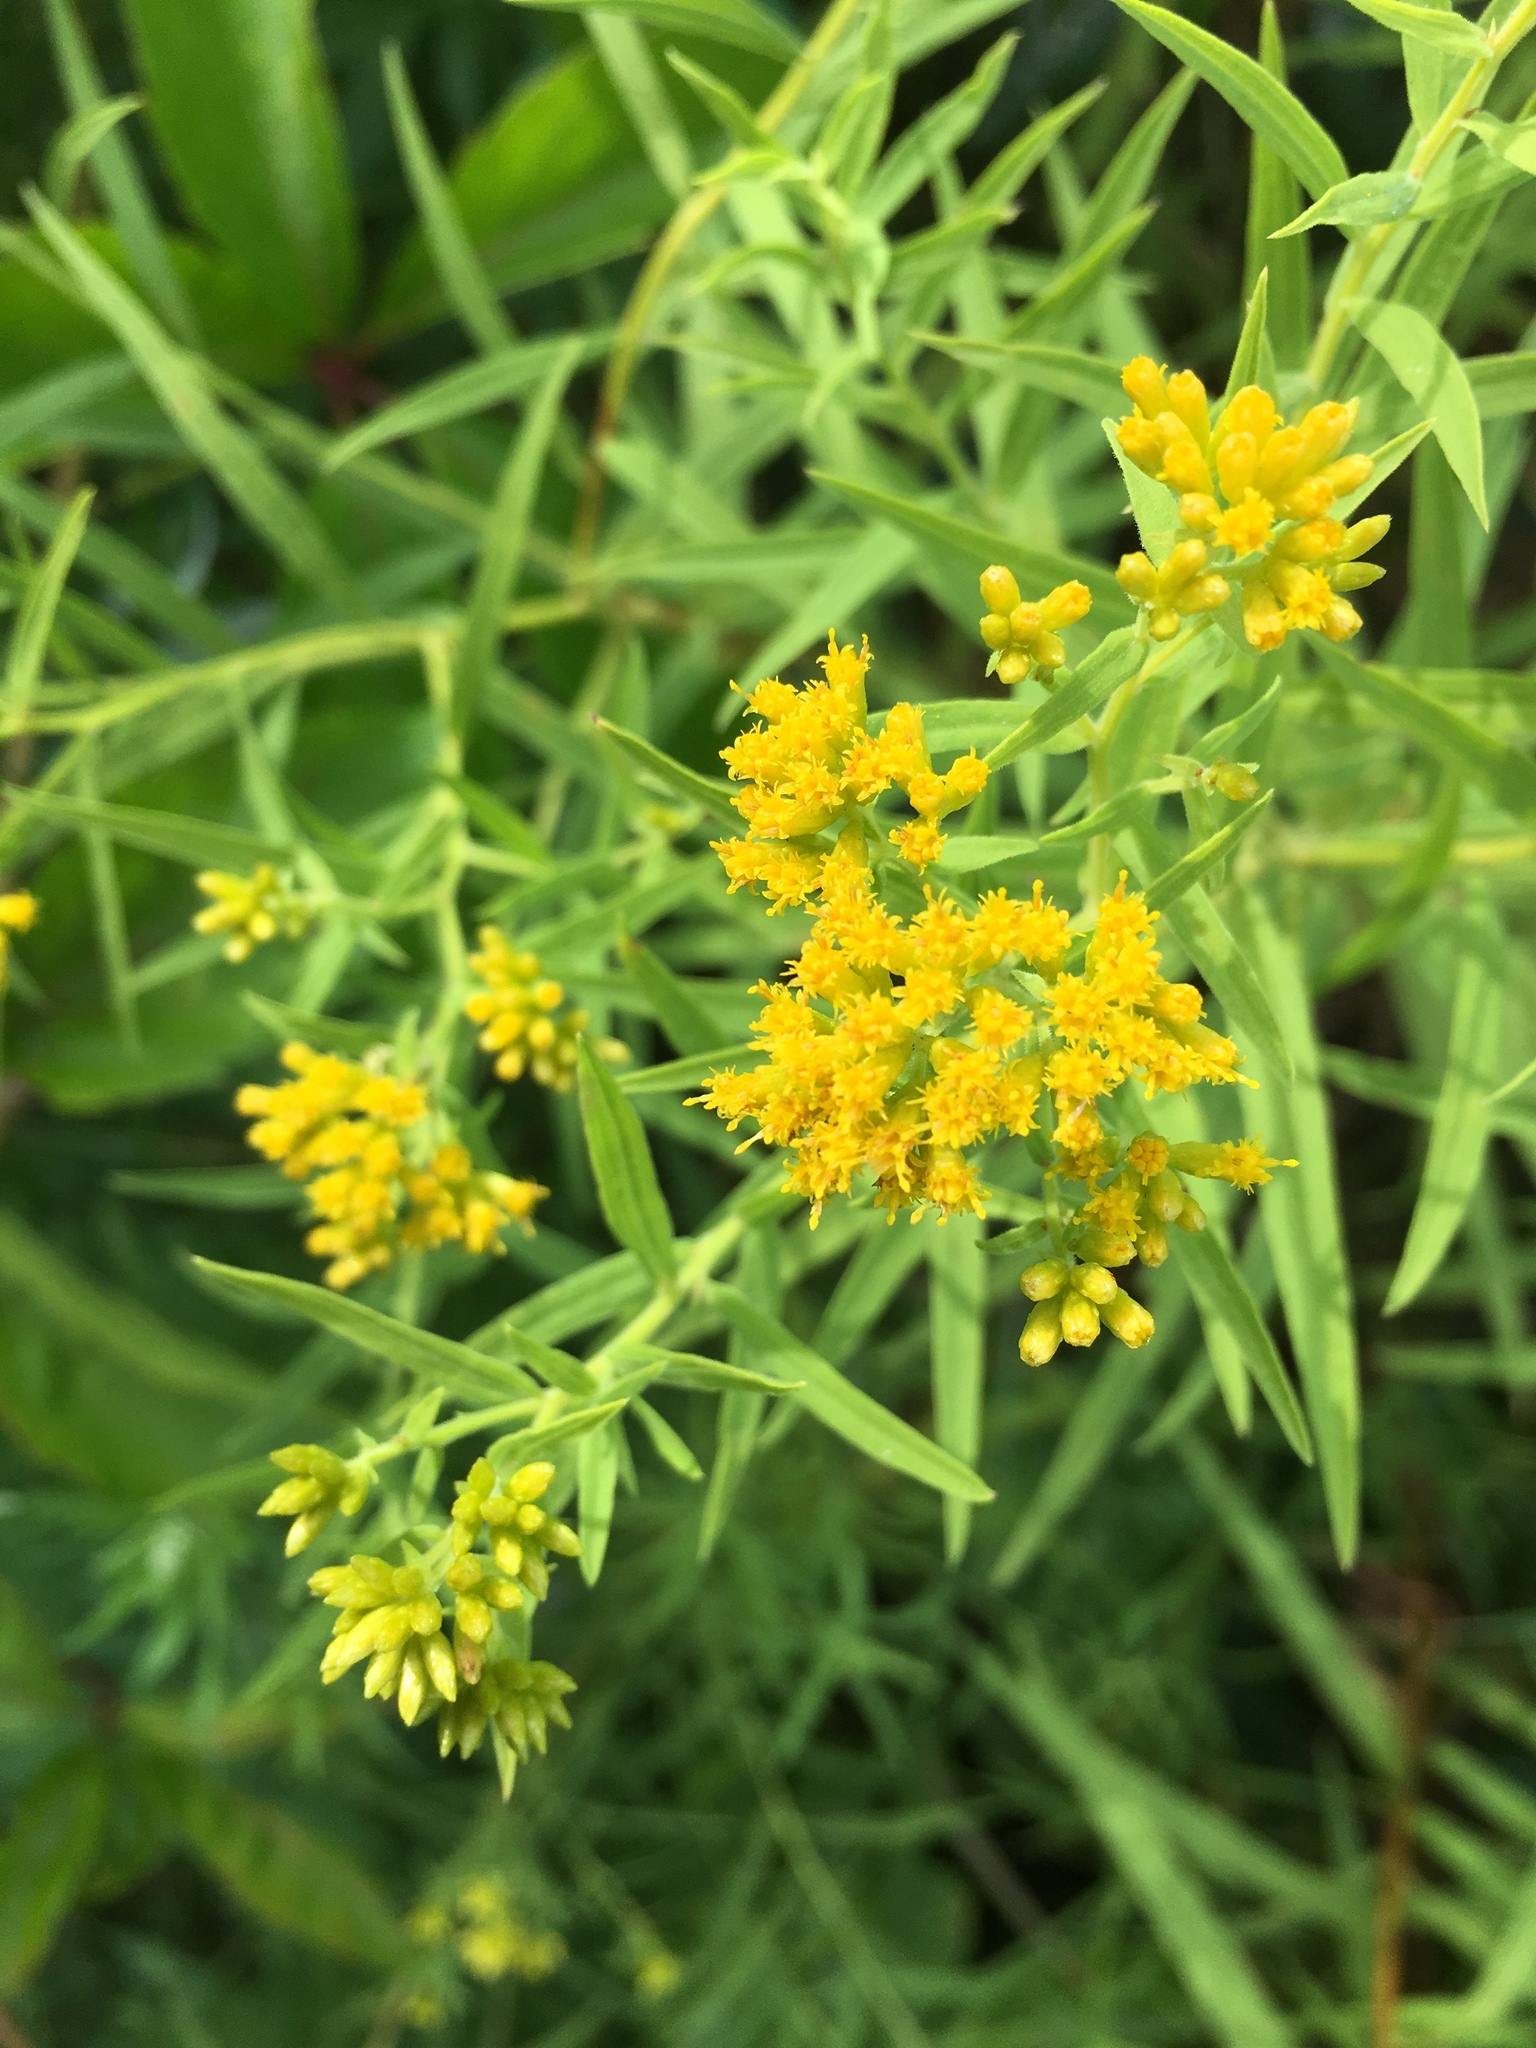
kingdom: Plantae
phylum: Tracheophyta
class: Magnoliopsida
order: Asterales
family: Asteraceae
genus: Euthamia
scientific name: Euthamia graminifolia
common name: Common goldentop
